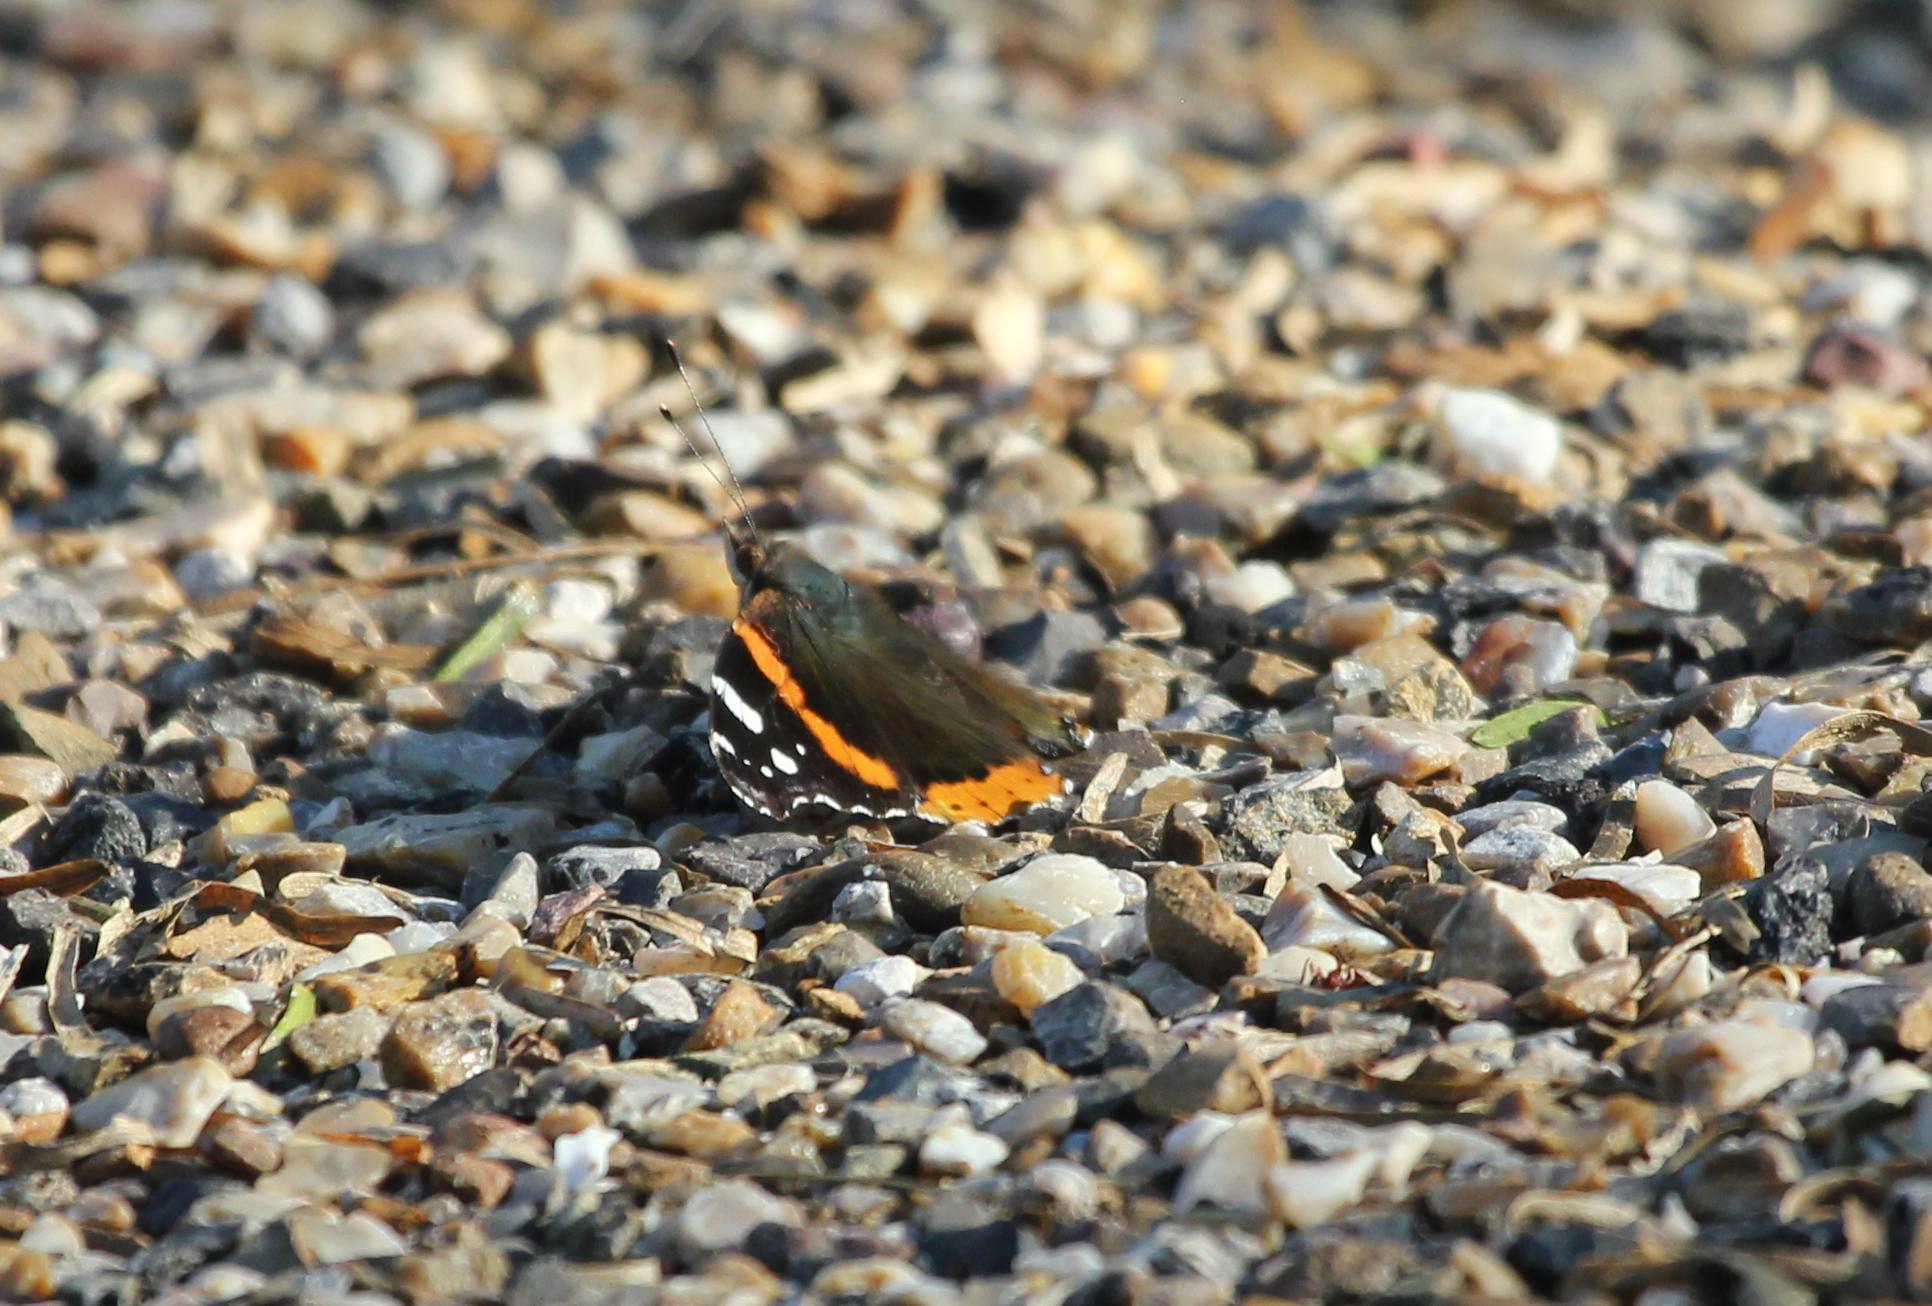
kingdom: Animalia
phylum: Arthropoda
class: Insecta
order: Lepidoptera
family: Nymphalidae
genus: Vanessa
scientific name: Vanessa atalanta
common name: Red admiral
